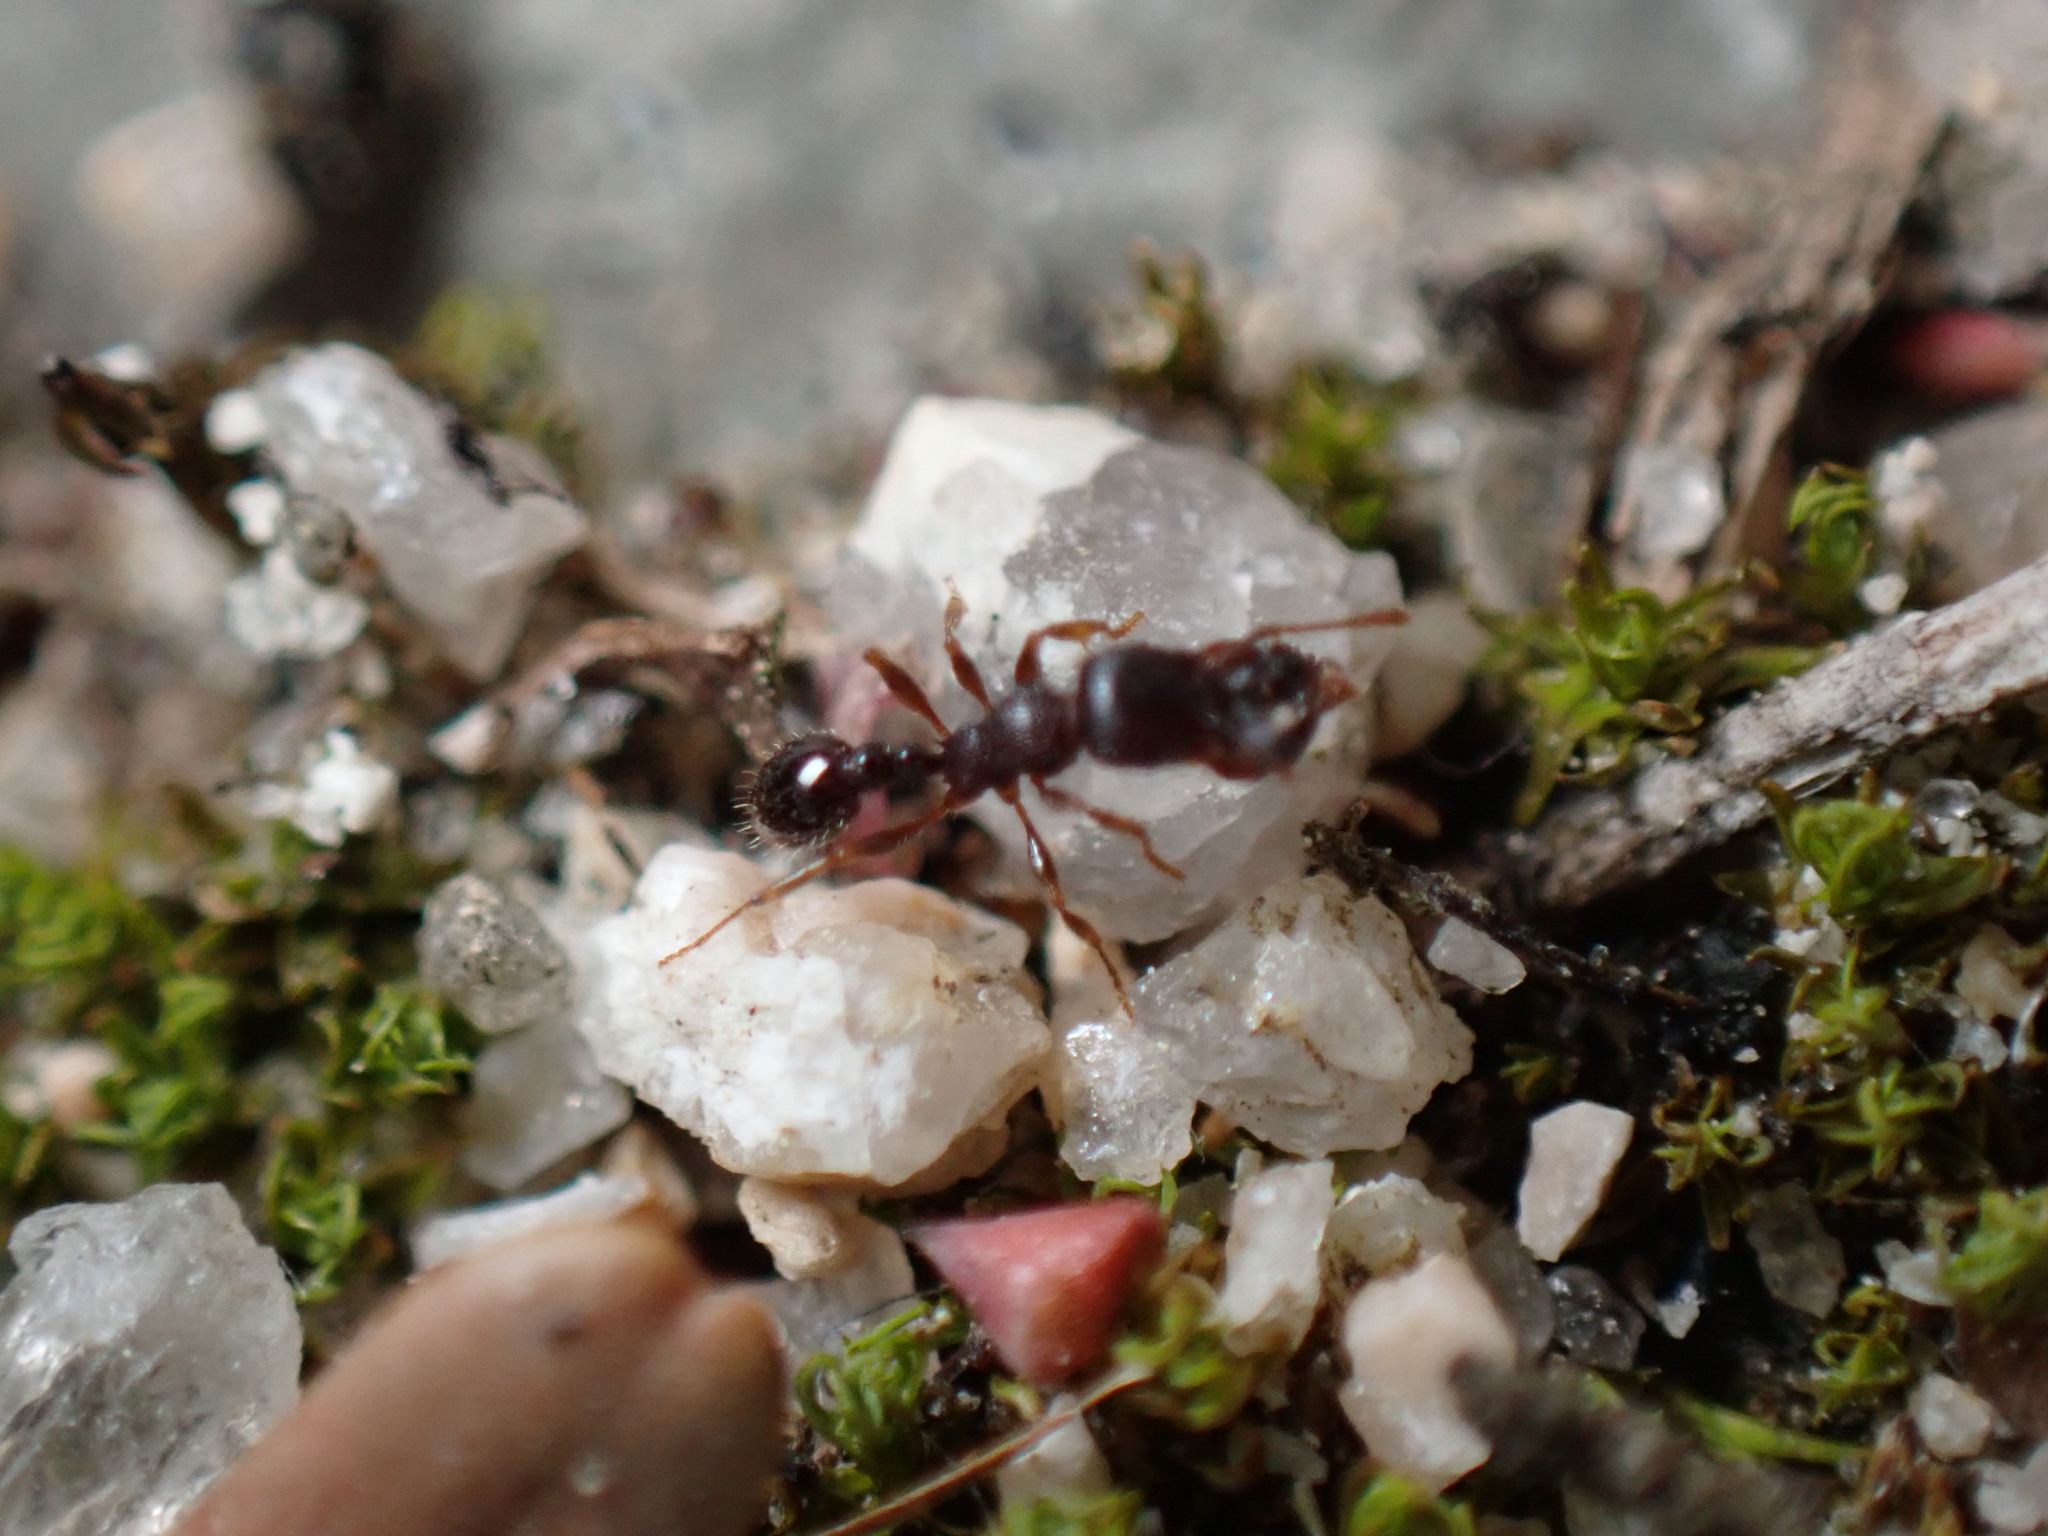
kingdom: Animalia
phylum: Arthropoda
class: Insecta
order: Hymenoptera
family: Formicidae
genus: Tetramorium
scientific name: Tetramorium tsushimae
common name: Ant
